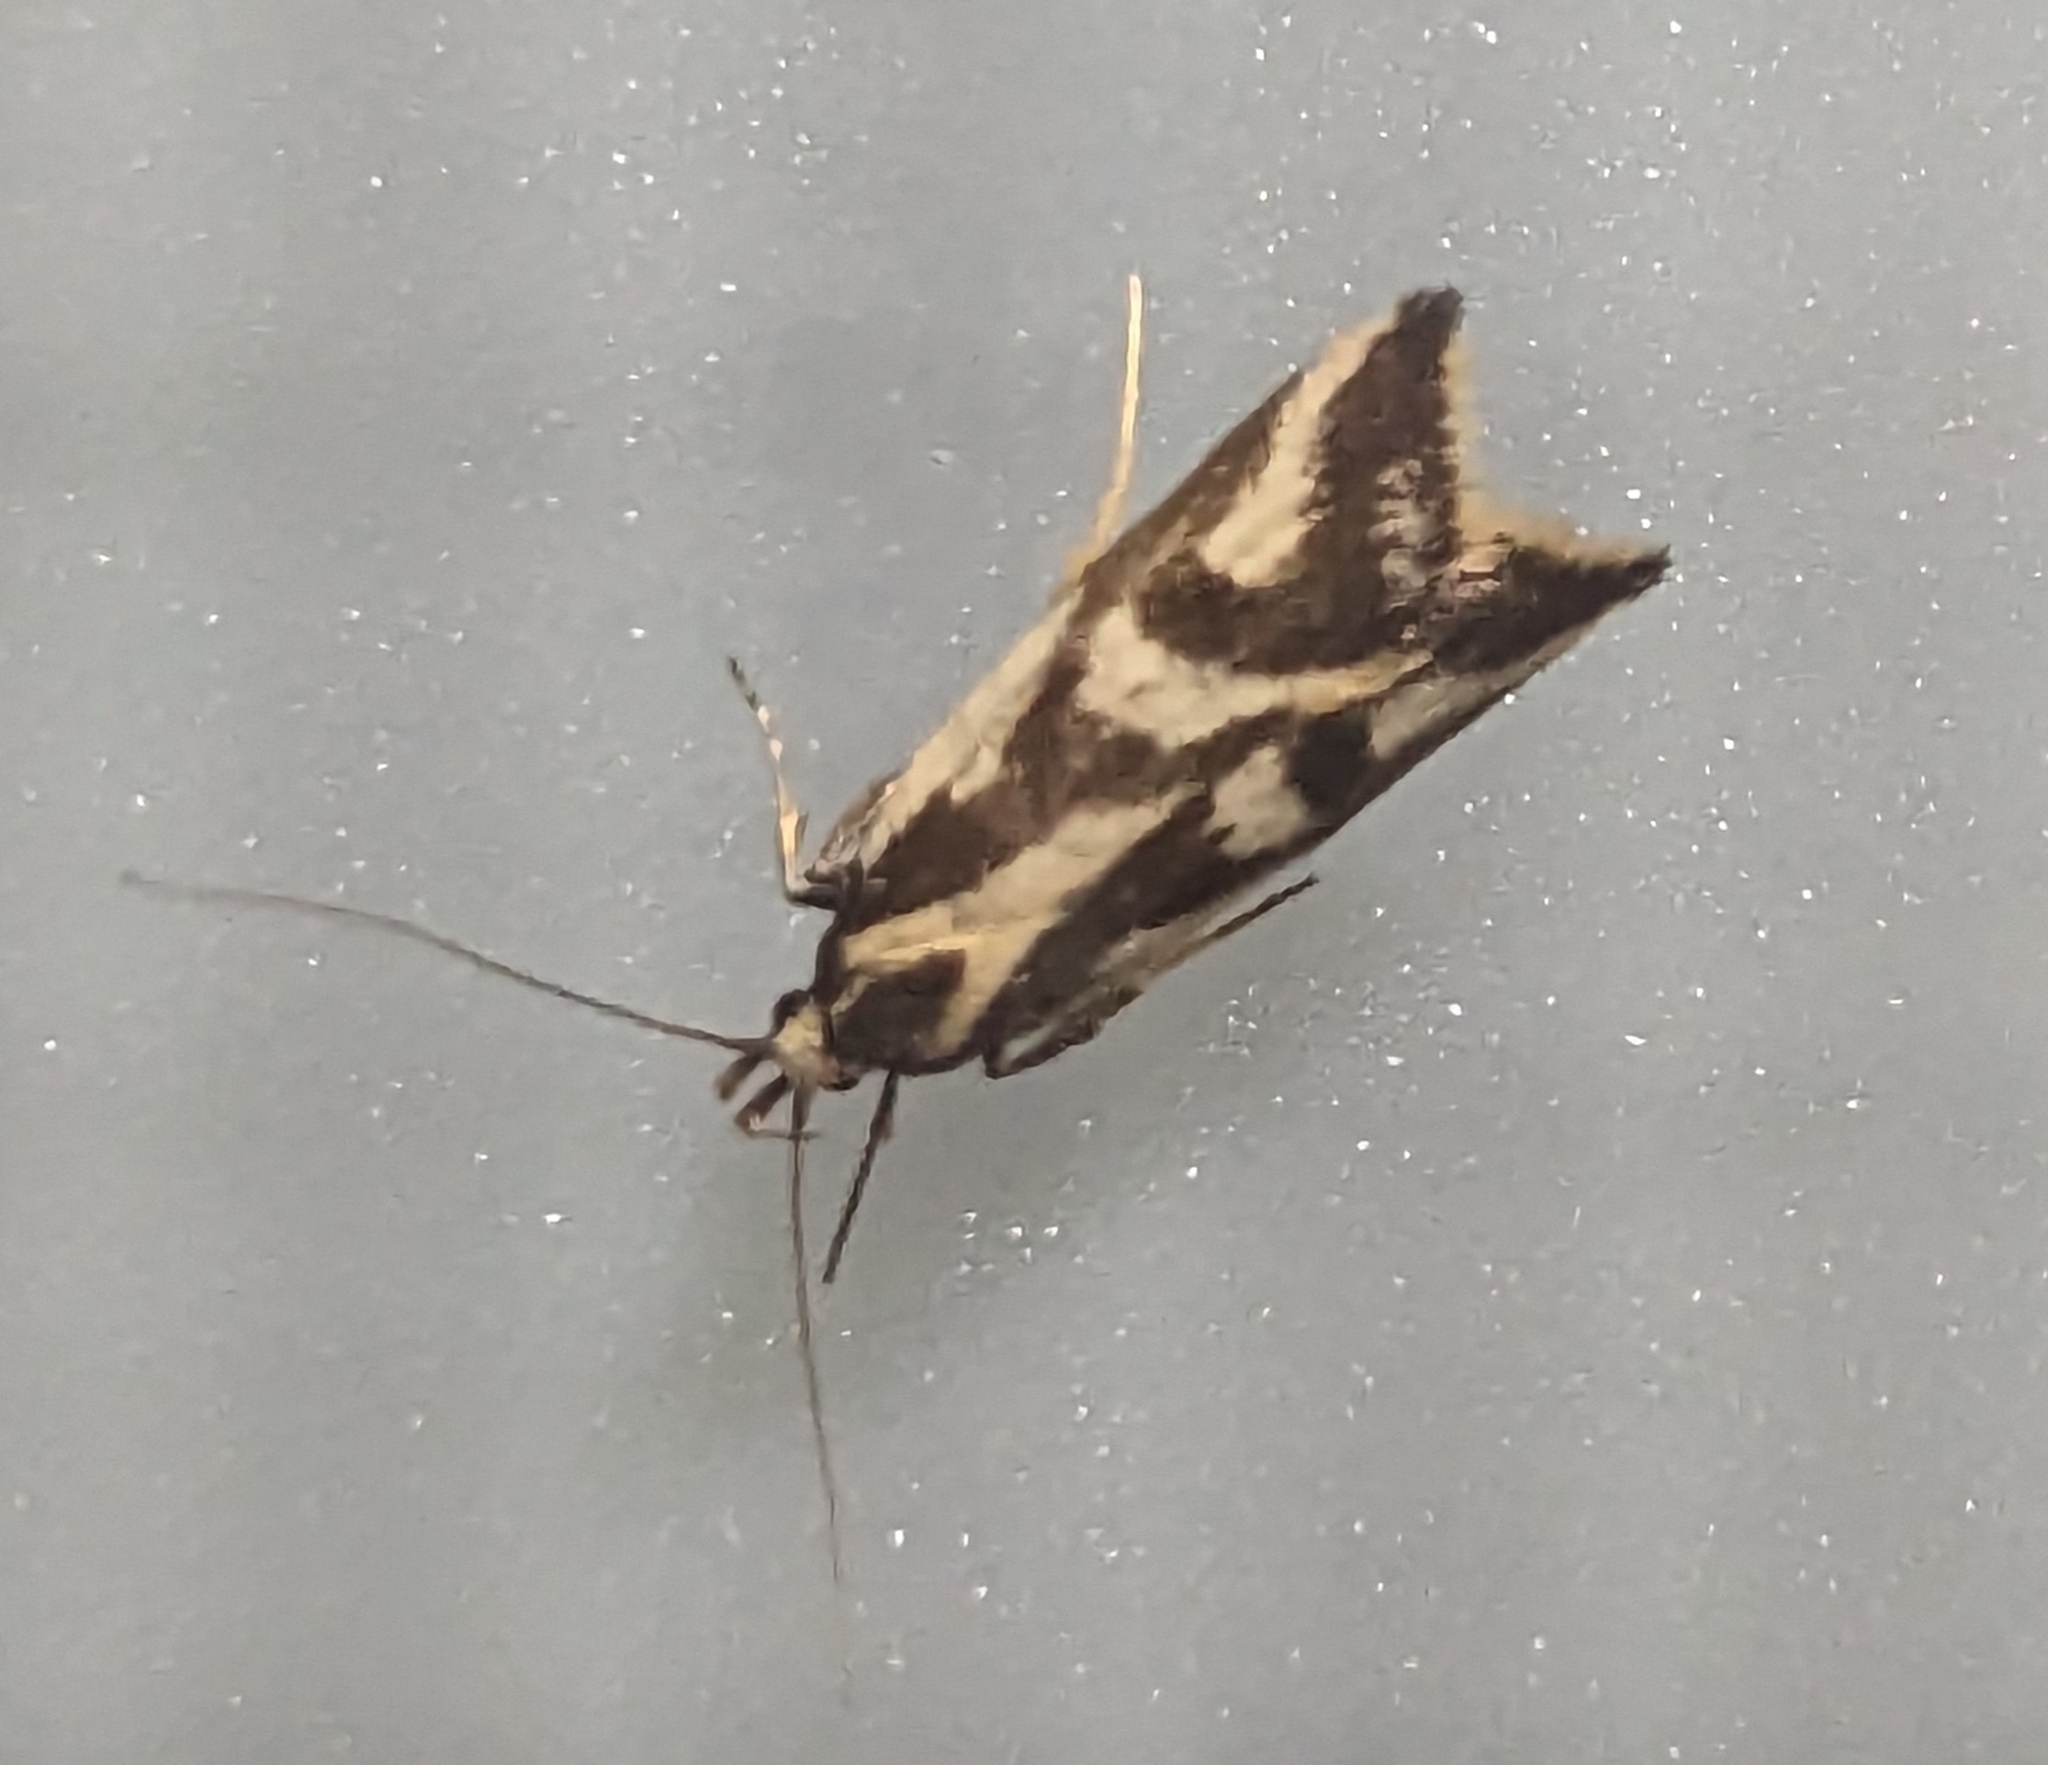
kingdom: Animalia
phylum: Arthropoda
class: Insecta
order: Lepidoptera
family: Oecophoridae
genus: Epithymema
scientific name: Epithymema incomposita
